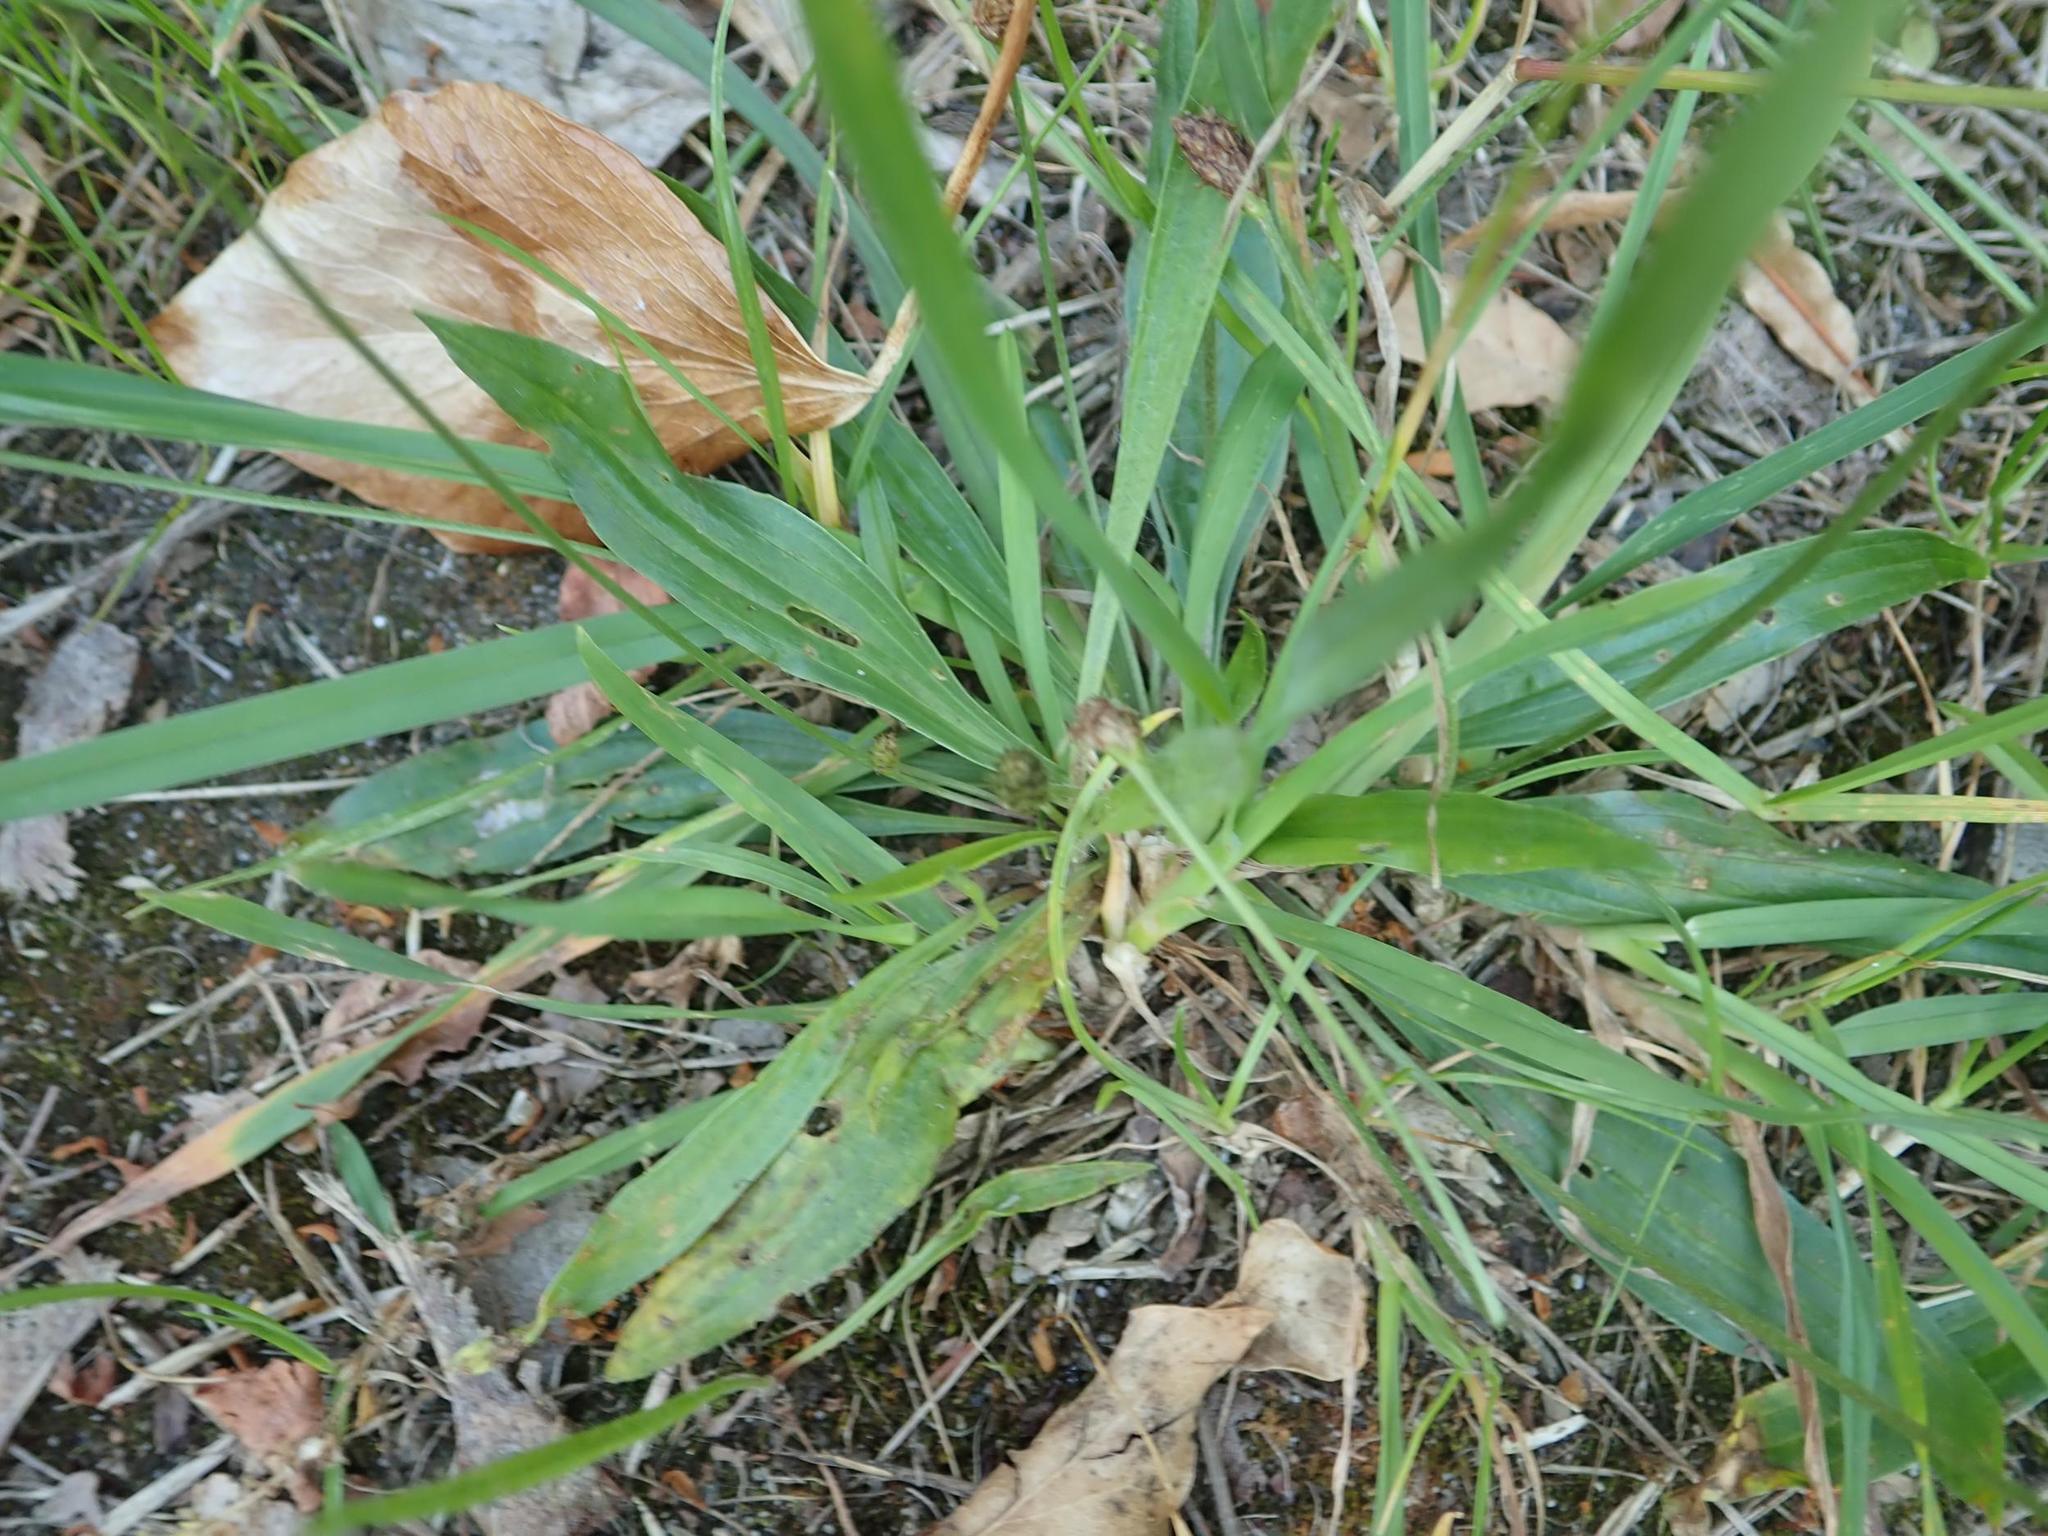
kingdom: Plantae
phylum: Tracheophyta
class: Magnoliopsida
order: Lamiales
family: Plantaginaceae
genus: Plantago
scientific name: Plantago lanceolata
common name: Ribwort plantain
